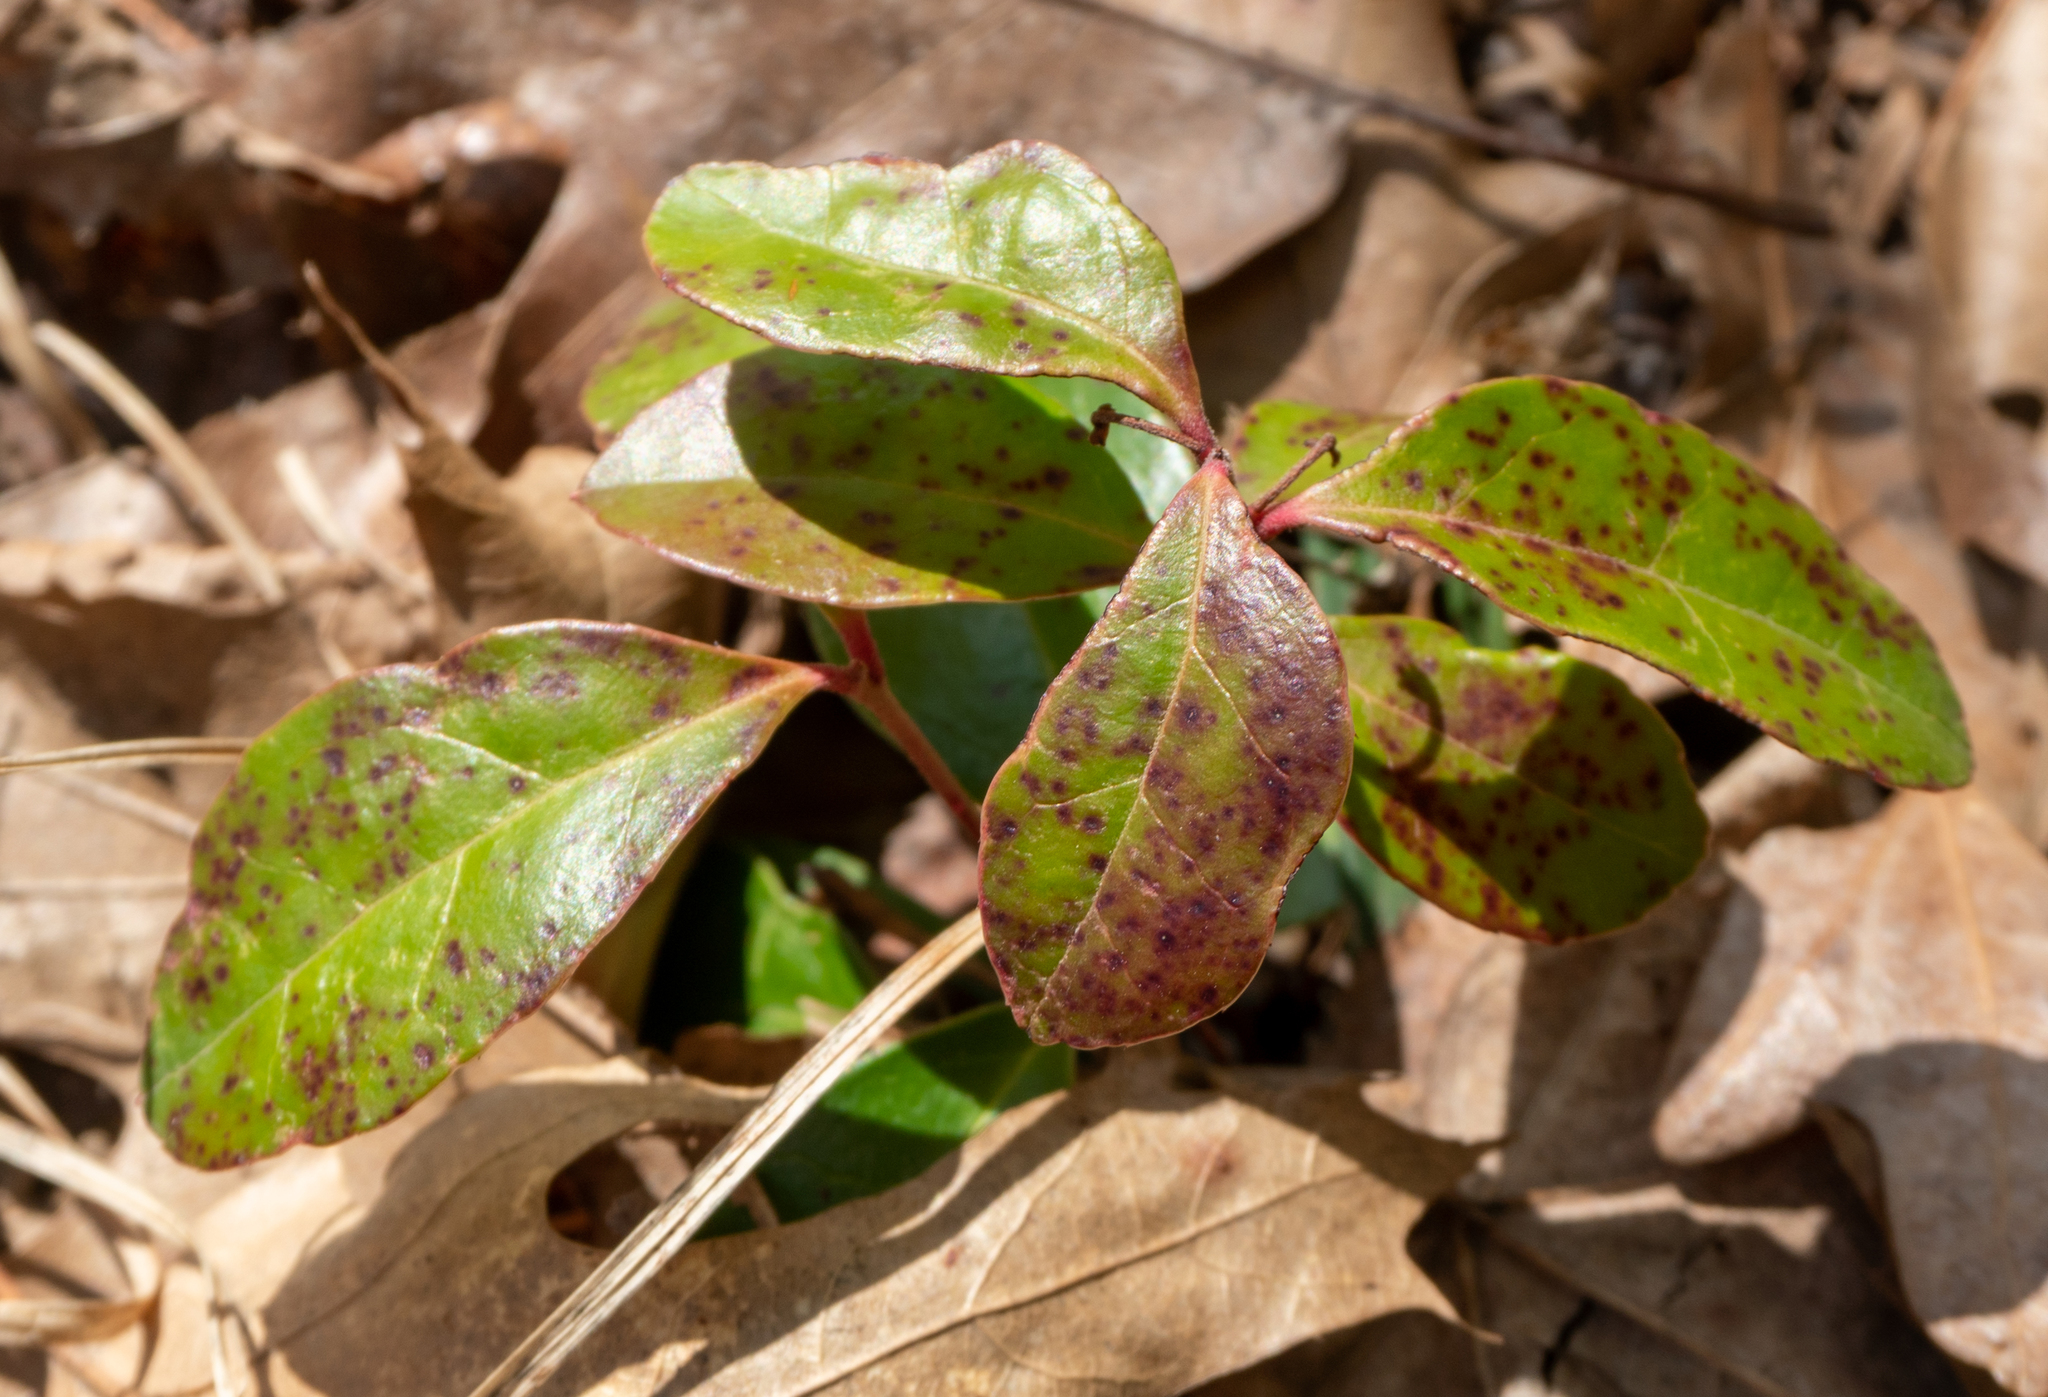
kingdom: Plantae
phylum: Tracheophyta
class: Magnoliopsida
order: Ericales
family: Ericaceae
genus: Gaultheria
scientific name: Gaultheria procumbens
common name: Checkerberry
